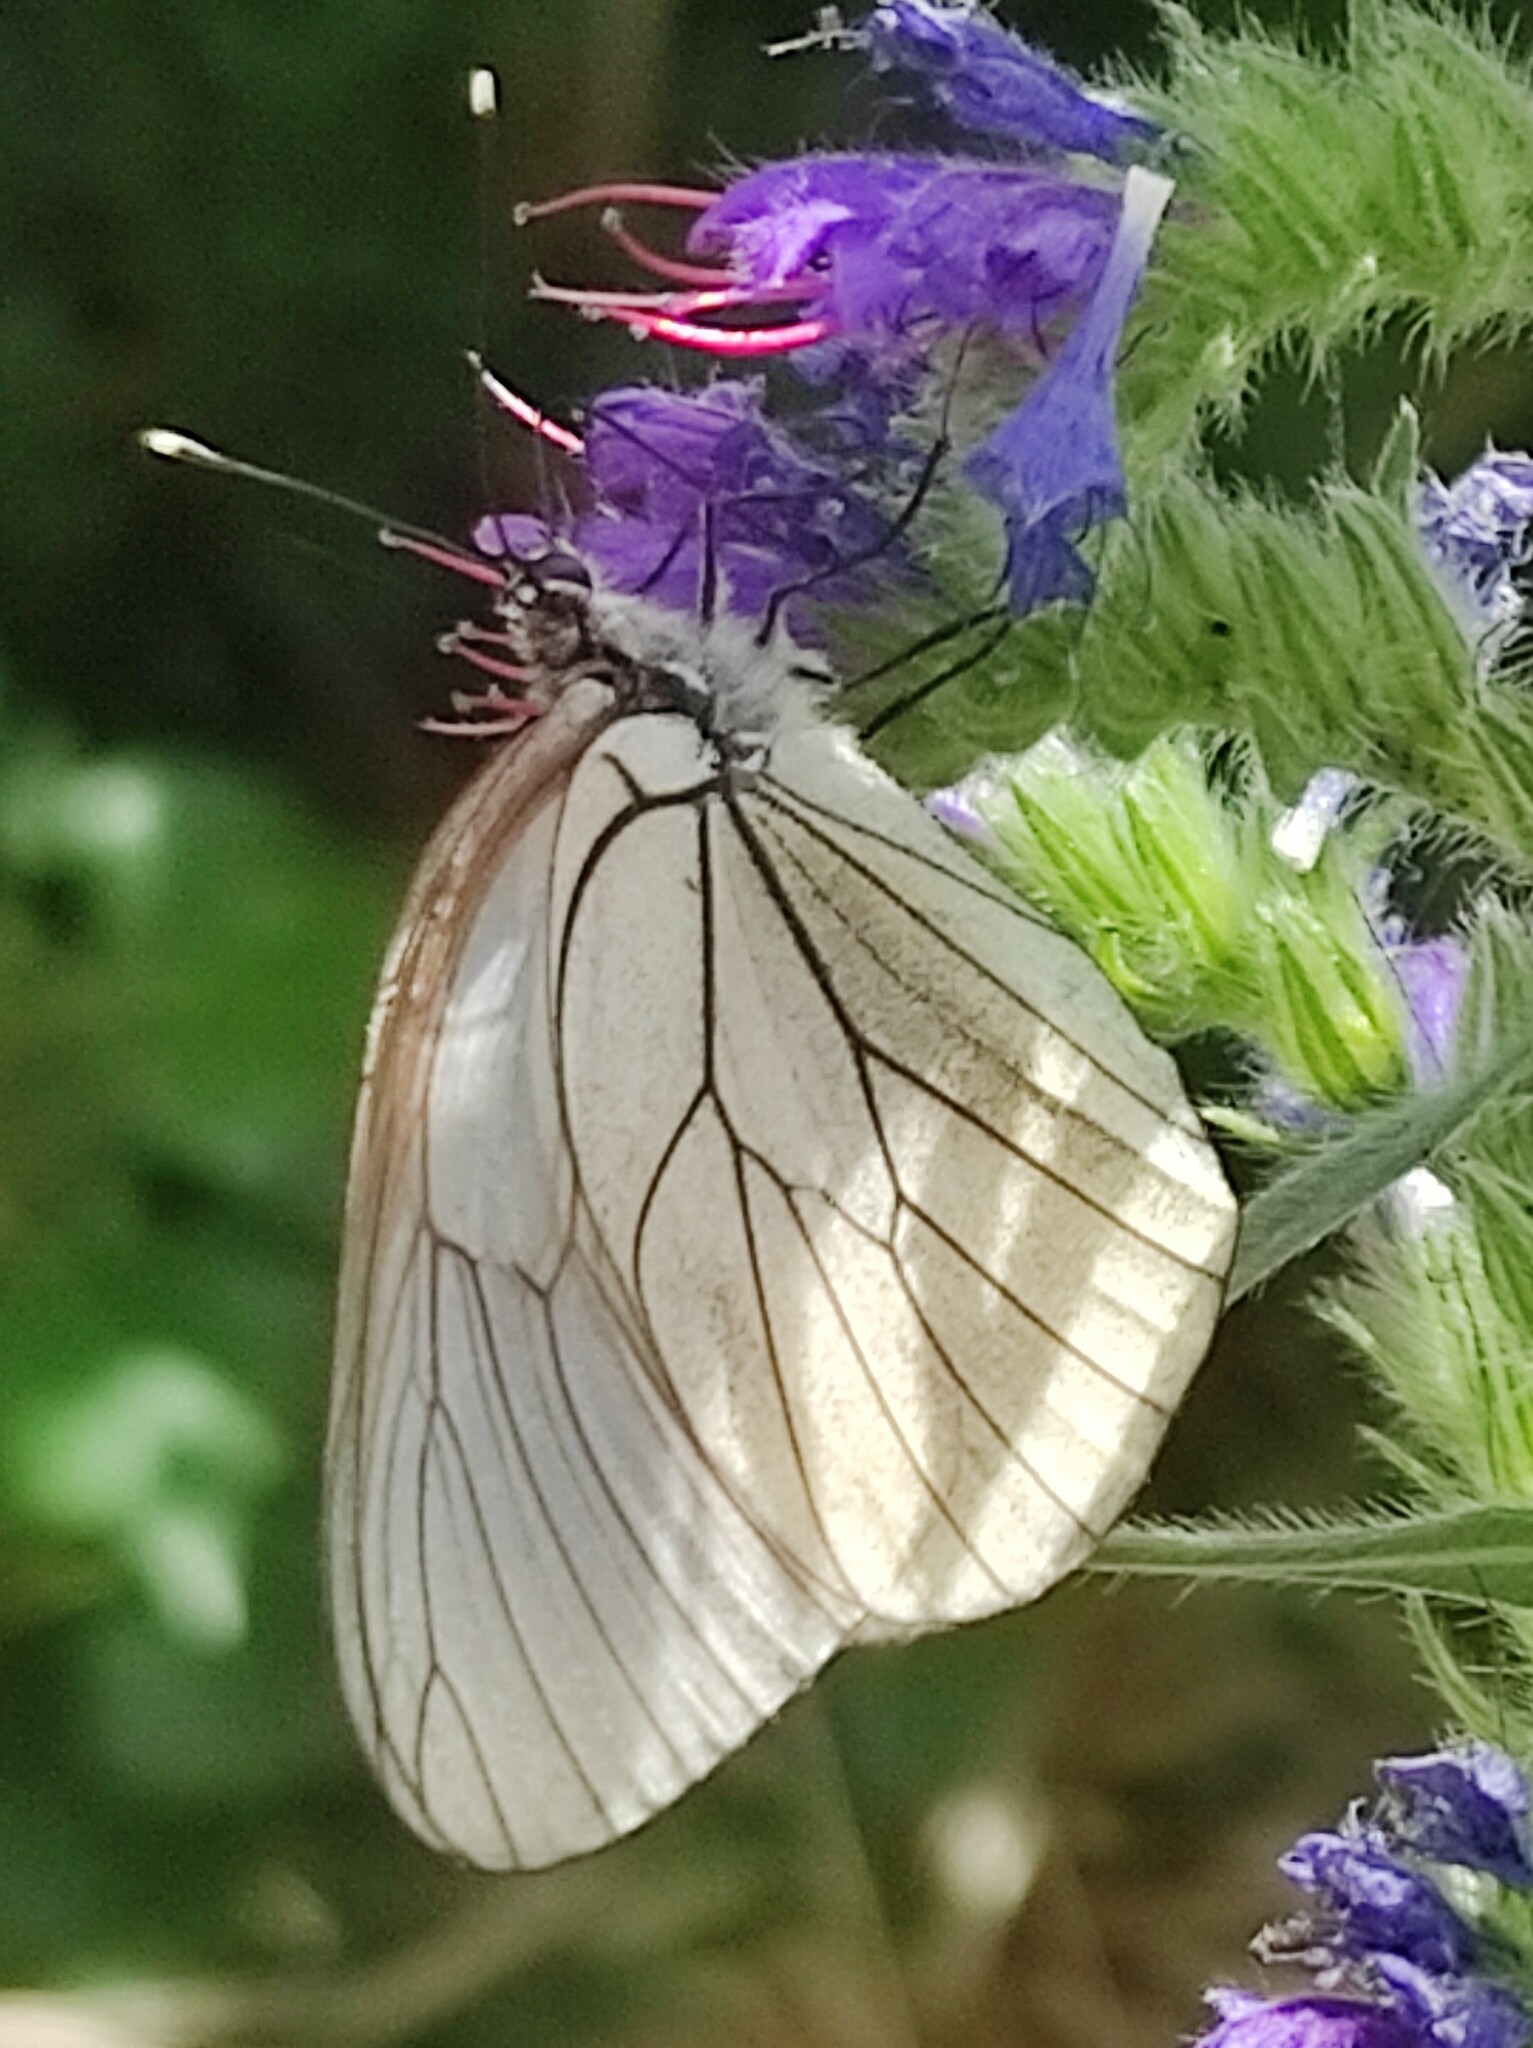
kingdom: Animalia
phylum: Arthropoda
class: Insecta
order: Lepidoptera
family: Pieridae
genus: Aporia
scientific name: Aporia crataegi
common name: Black-veined white
